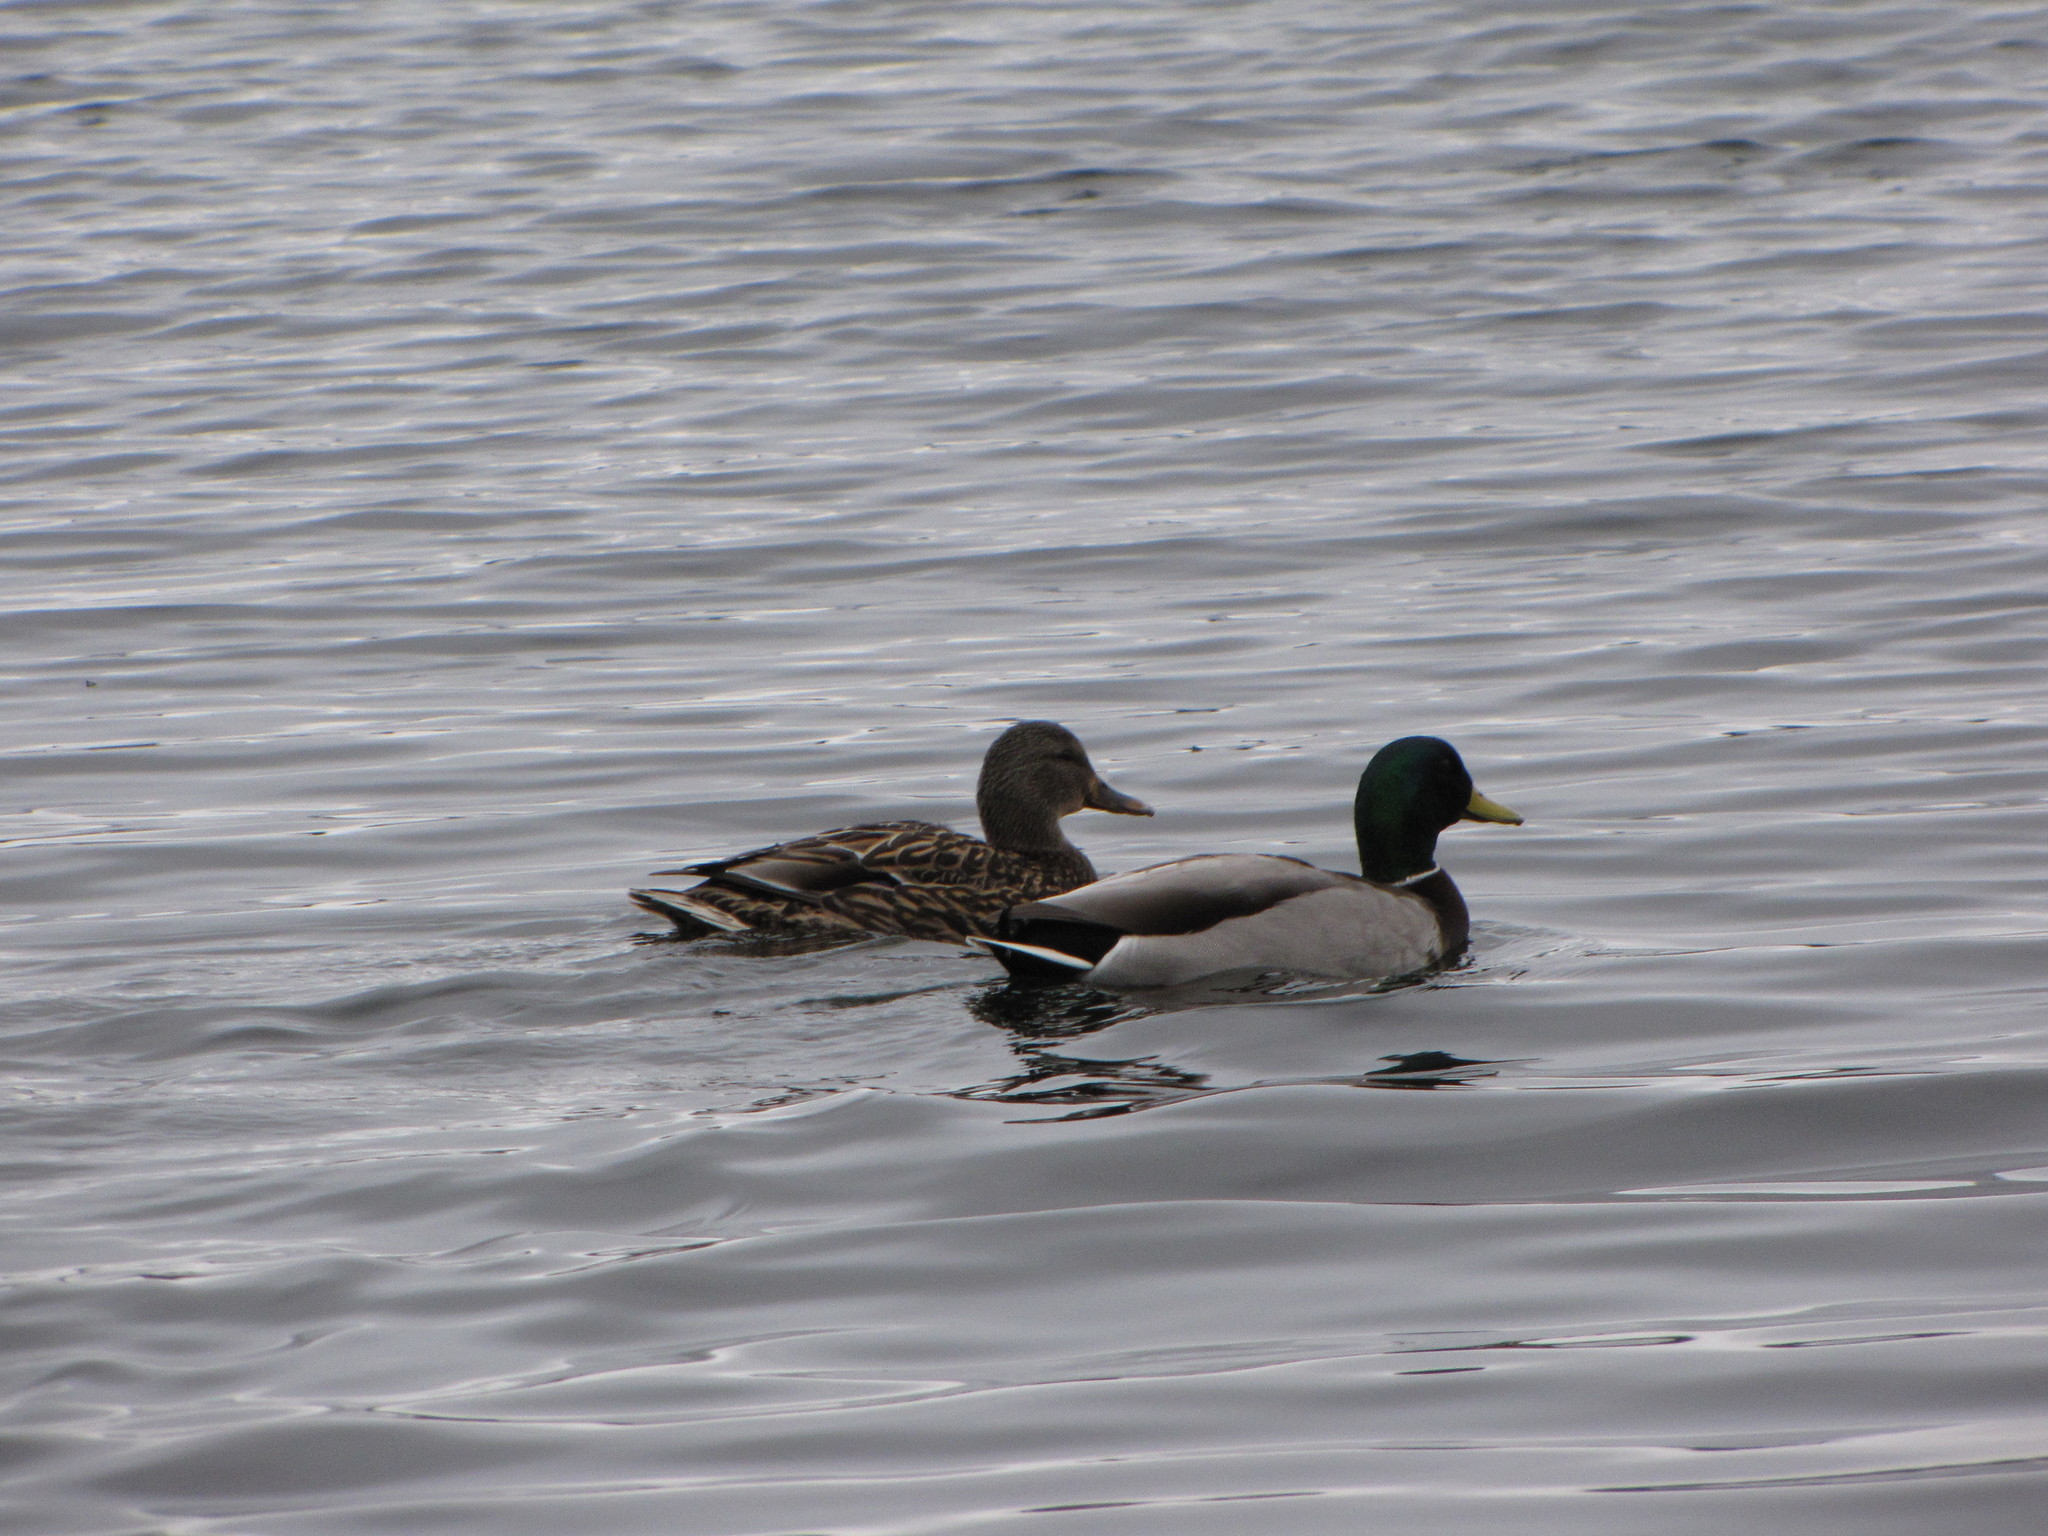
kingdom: Animalia
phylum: Chordata
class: Aves
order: Anseriformes
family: Anatidae
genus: Anas
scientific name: Anas platyrhynchos
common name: Mallard
